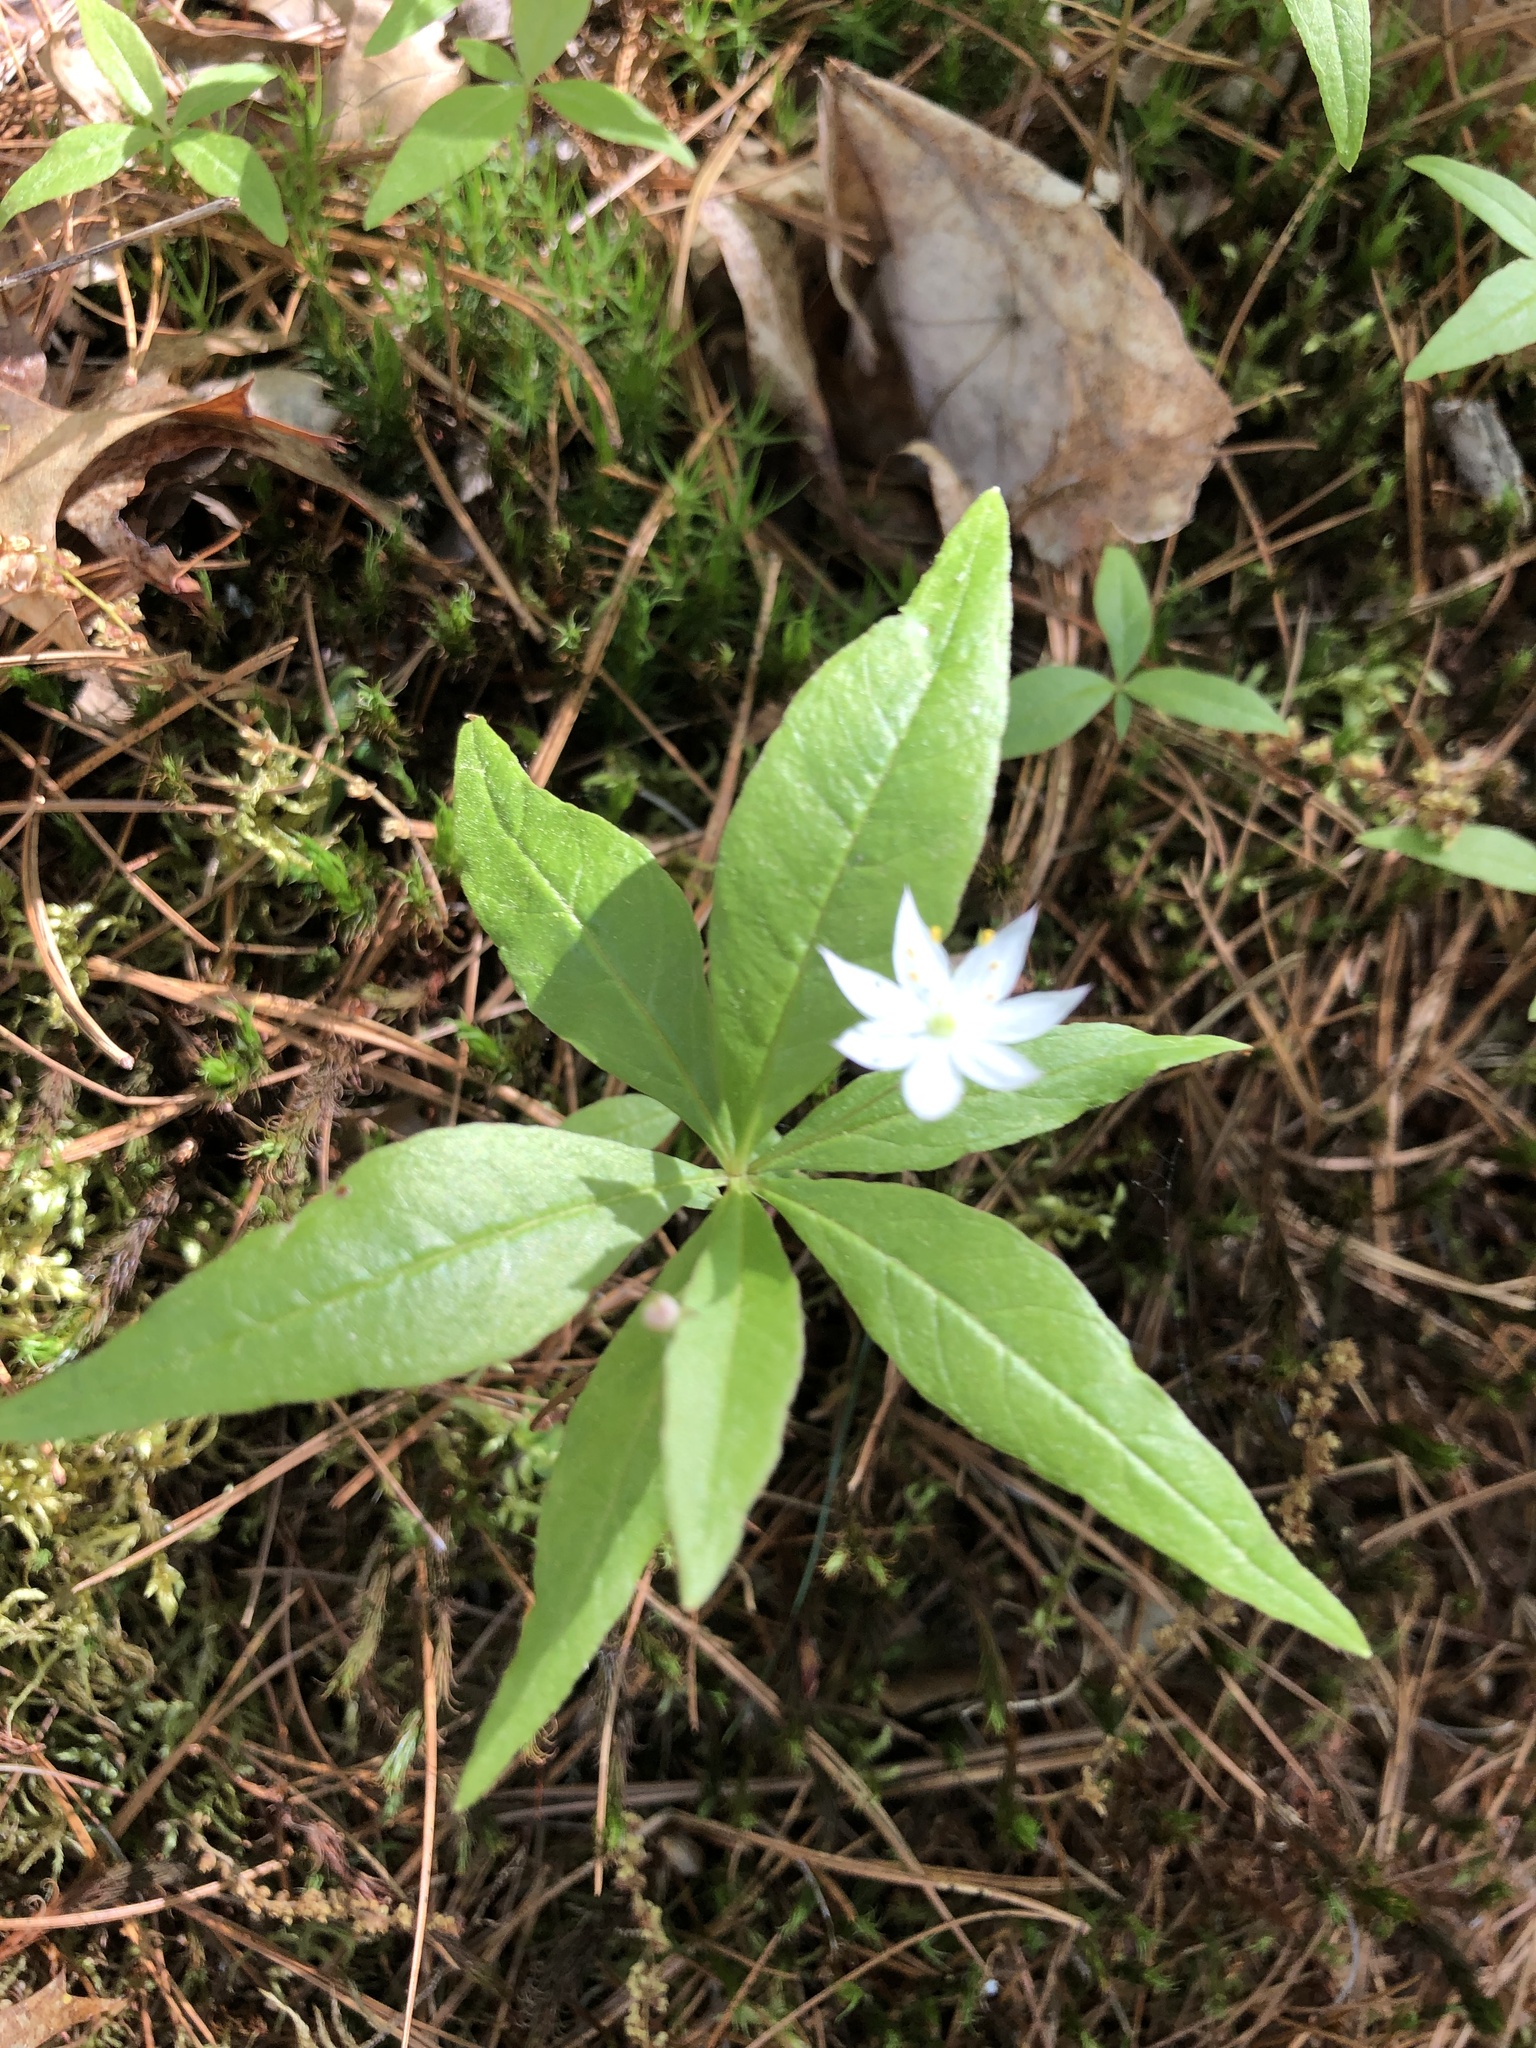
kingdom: Plantae
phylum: Tracheophyta
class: Magnoliopsida
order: Ericales
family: Primulaceae
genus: Lysimachia
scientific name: Lysimachia borealis
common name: American starflower
